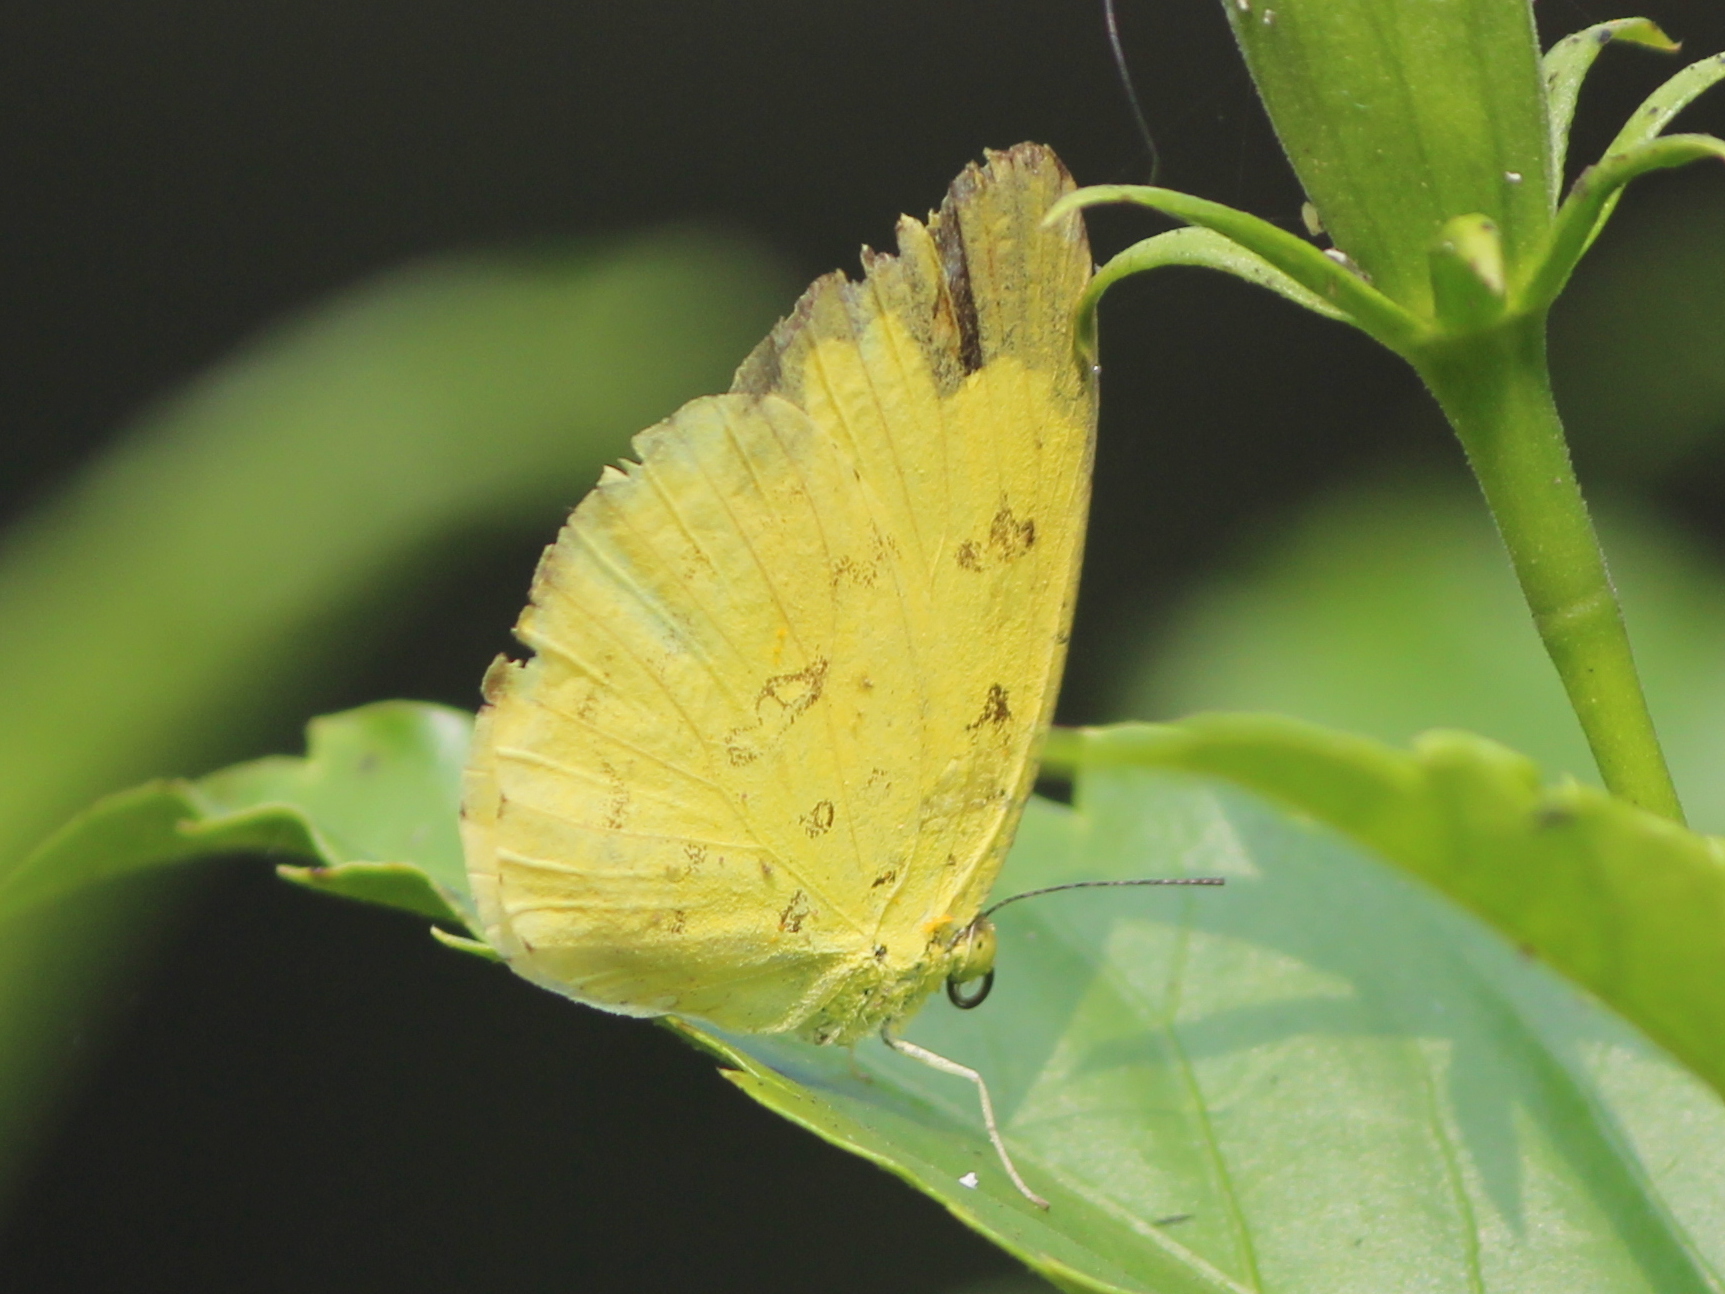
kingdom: Animalia
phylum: Arthropoda
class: Insecta
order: Lepidoptera
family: Pieridae
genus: Eurema
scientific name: Eurema blanda
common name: Three-spot grass yellow
